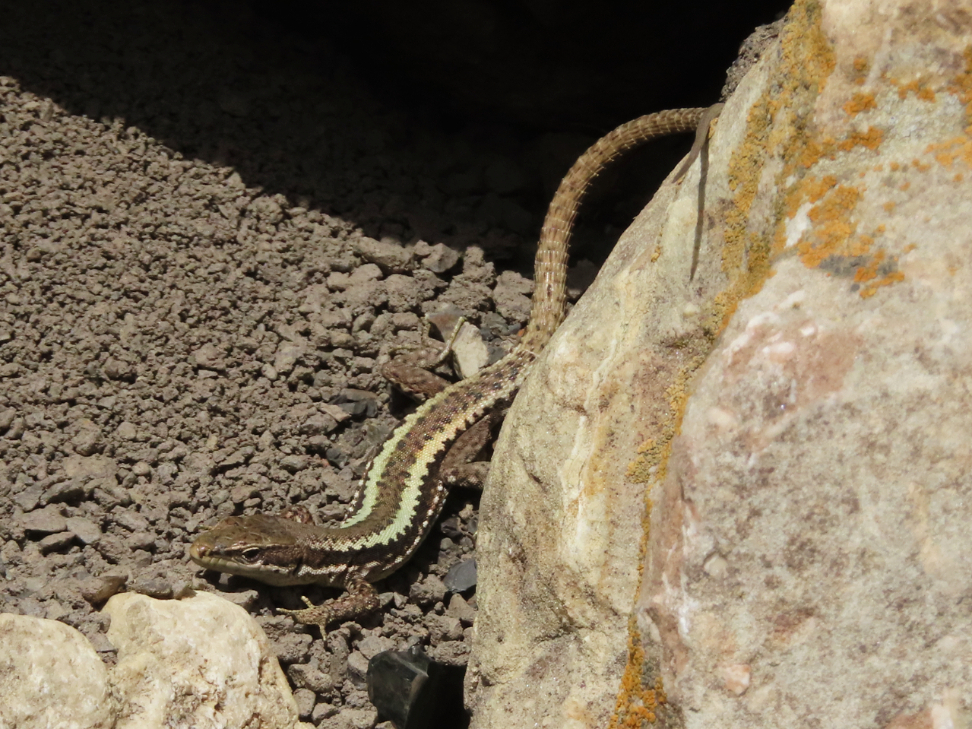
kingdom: Animalia
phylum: Chordata
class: Squamata
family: Lacertidae
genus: Darevskia
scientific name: Darevskia daghestanica
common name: Dagestan lizard
